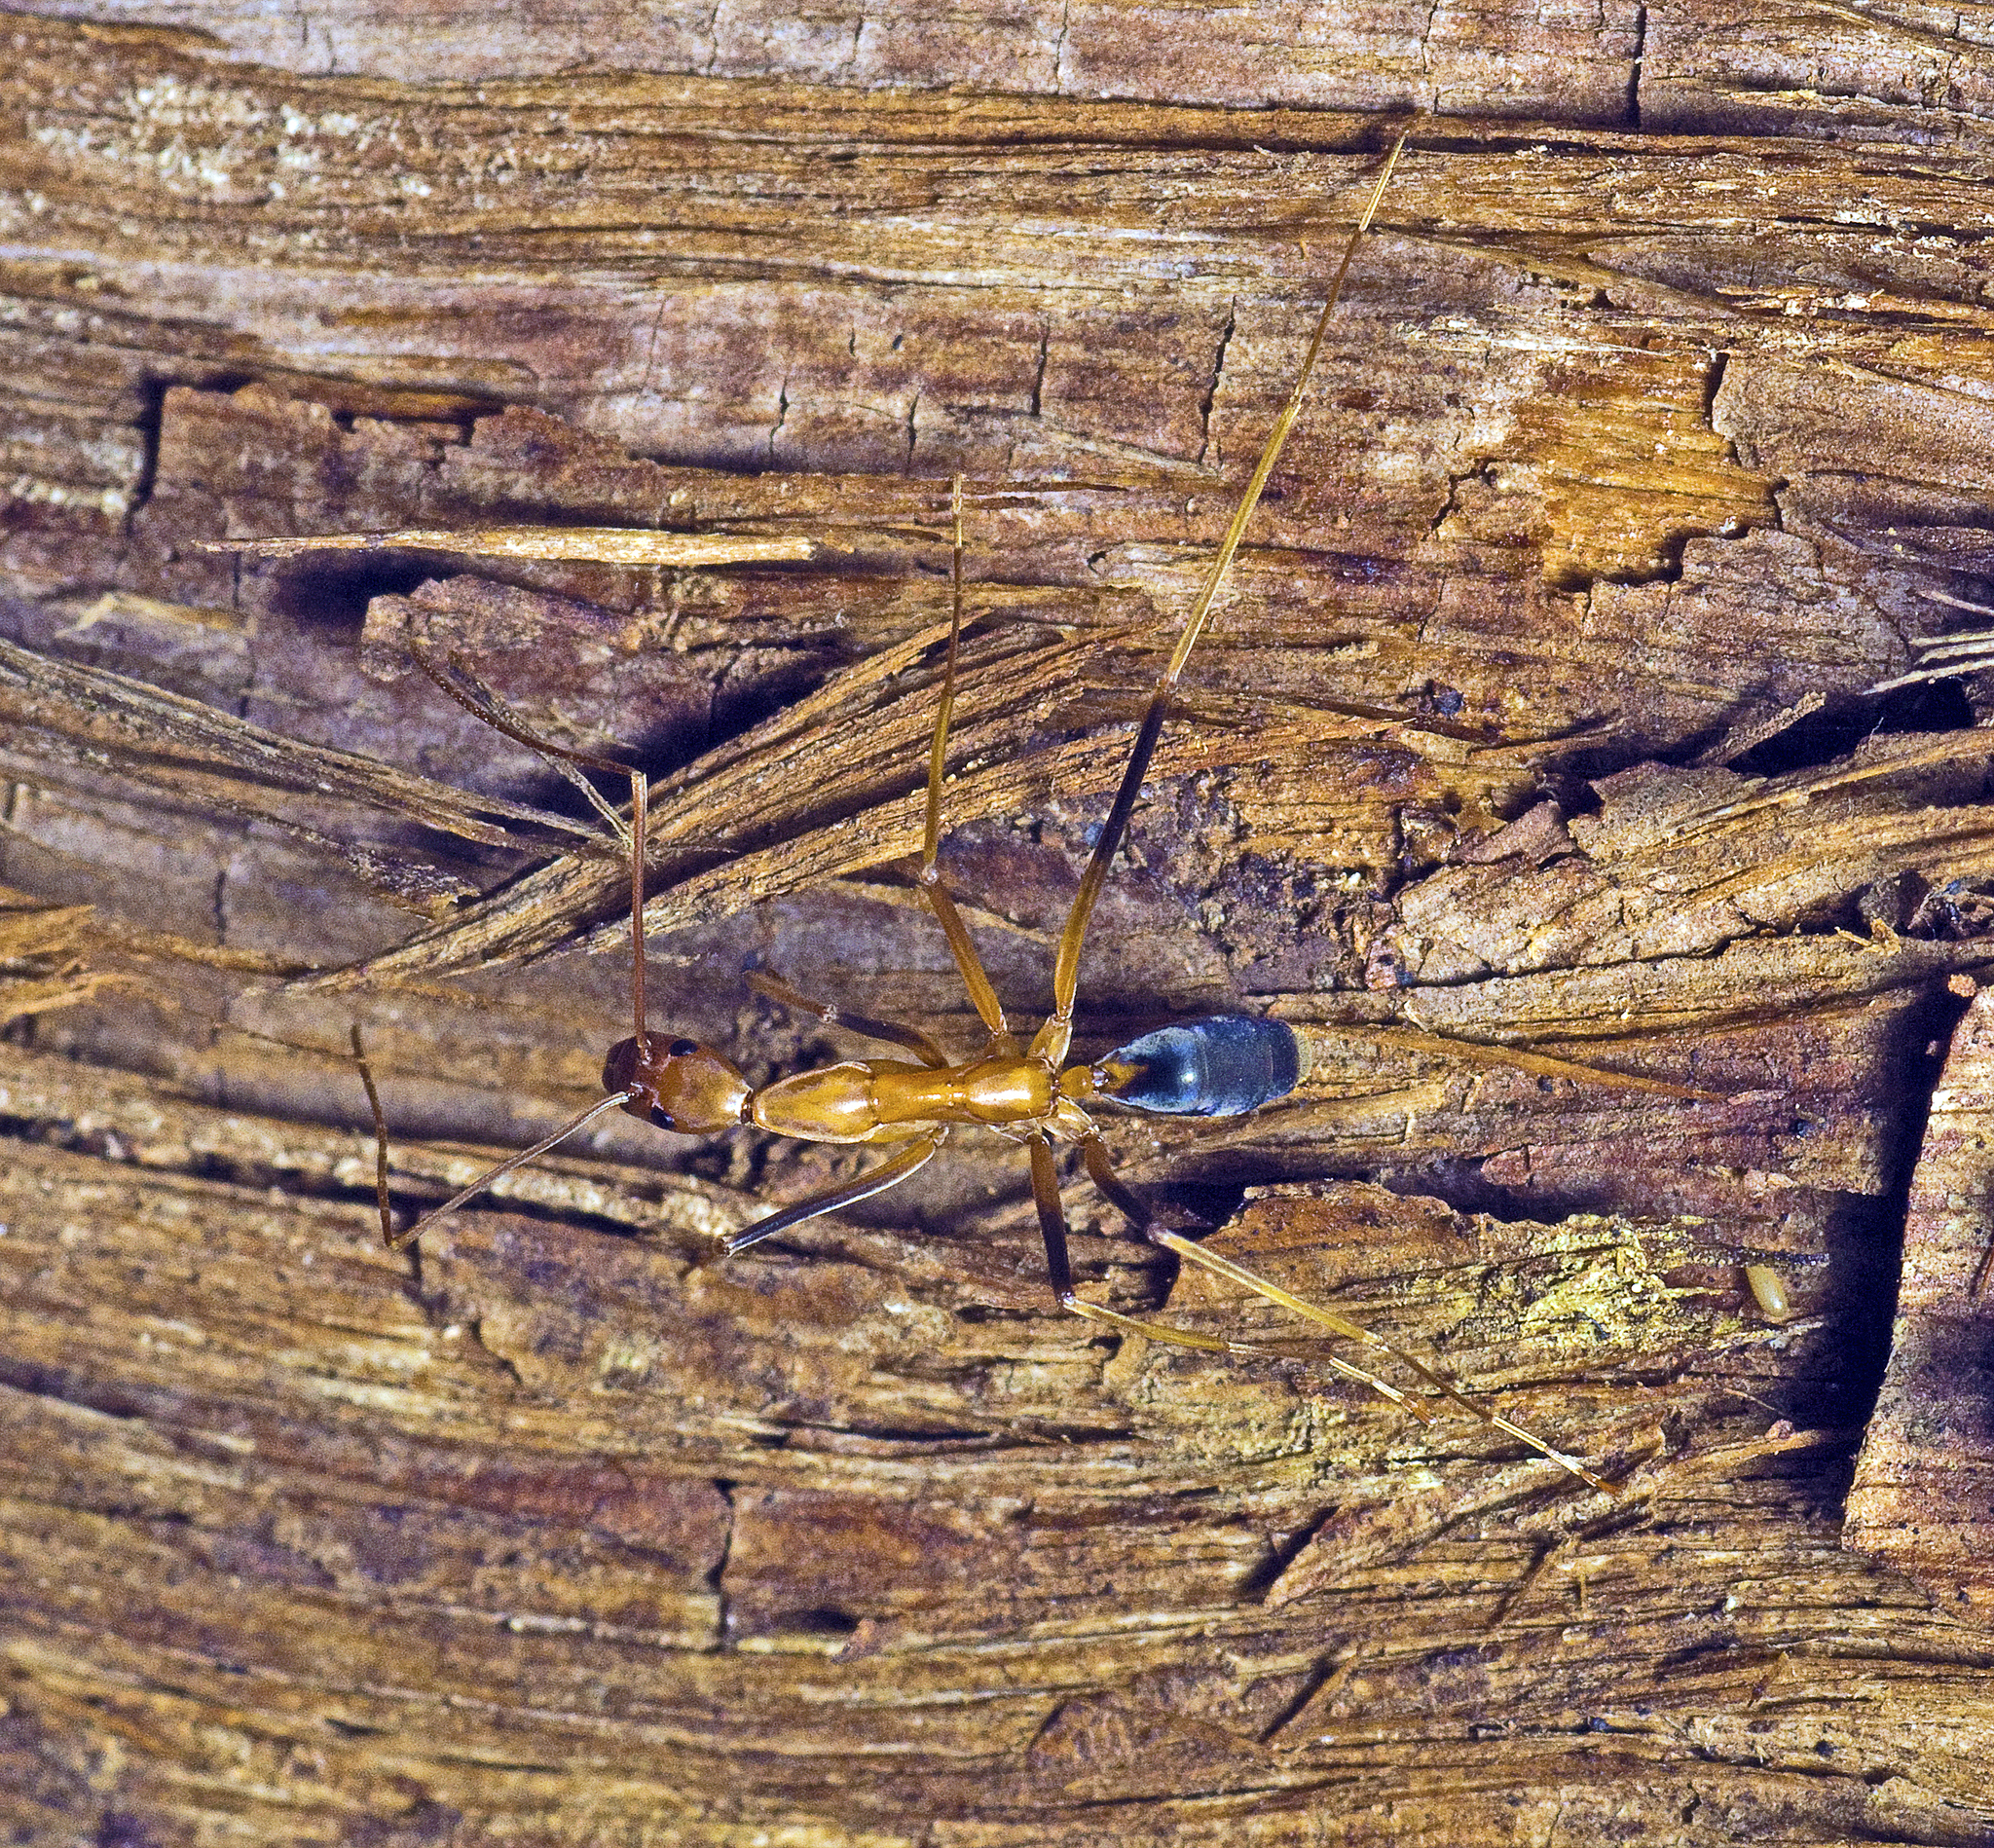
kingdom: Animalia
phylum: Arthropoda
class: Insecta
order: Hymenoptera
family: Formicidae
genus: Leptomyrmex
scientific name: Leptomyrmex rufipes
